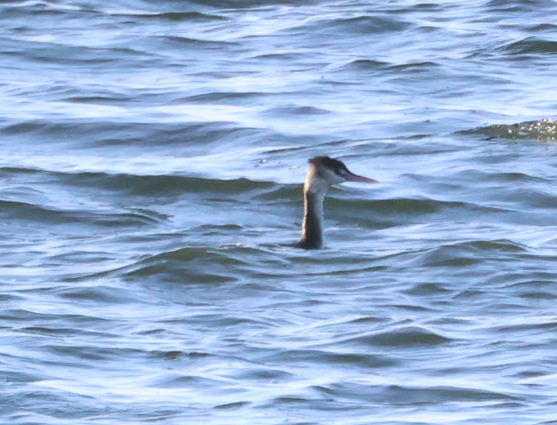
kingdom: Animalia
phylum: Chordata
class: Aves
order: Podicipediformes
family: Podicipedidae
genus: Podiceps
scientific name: Podiceps cristatus
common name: Great crested grebe
